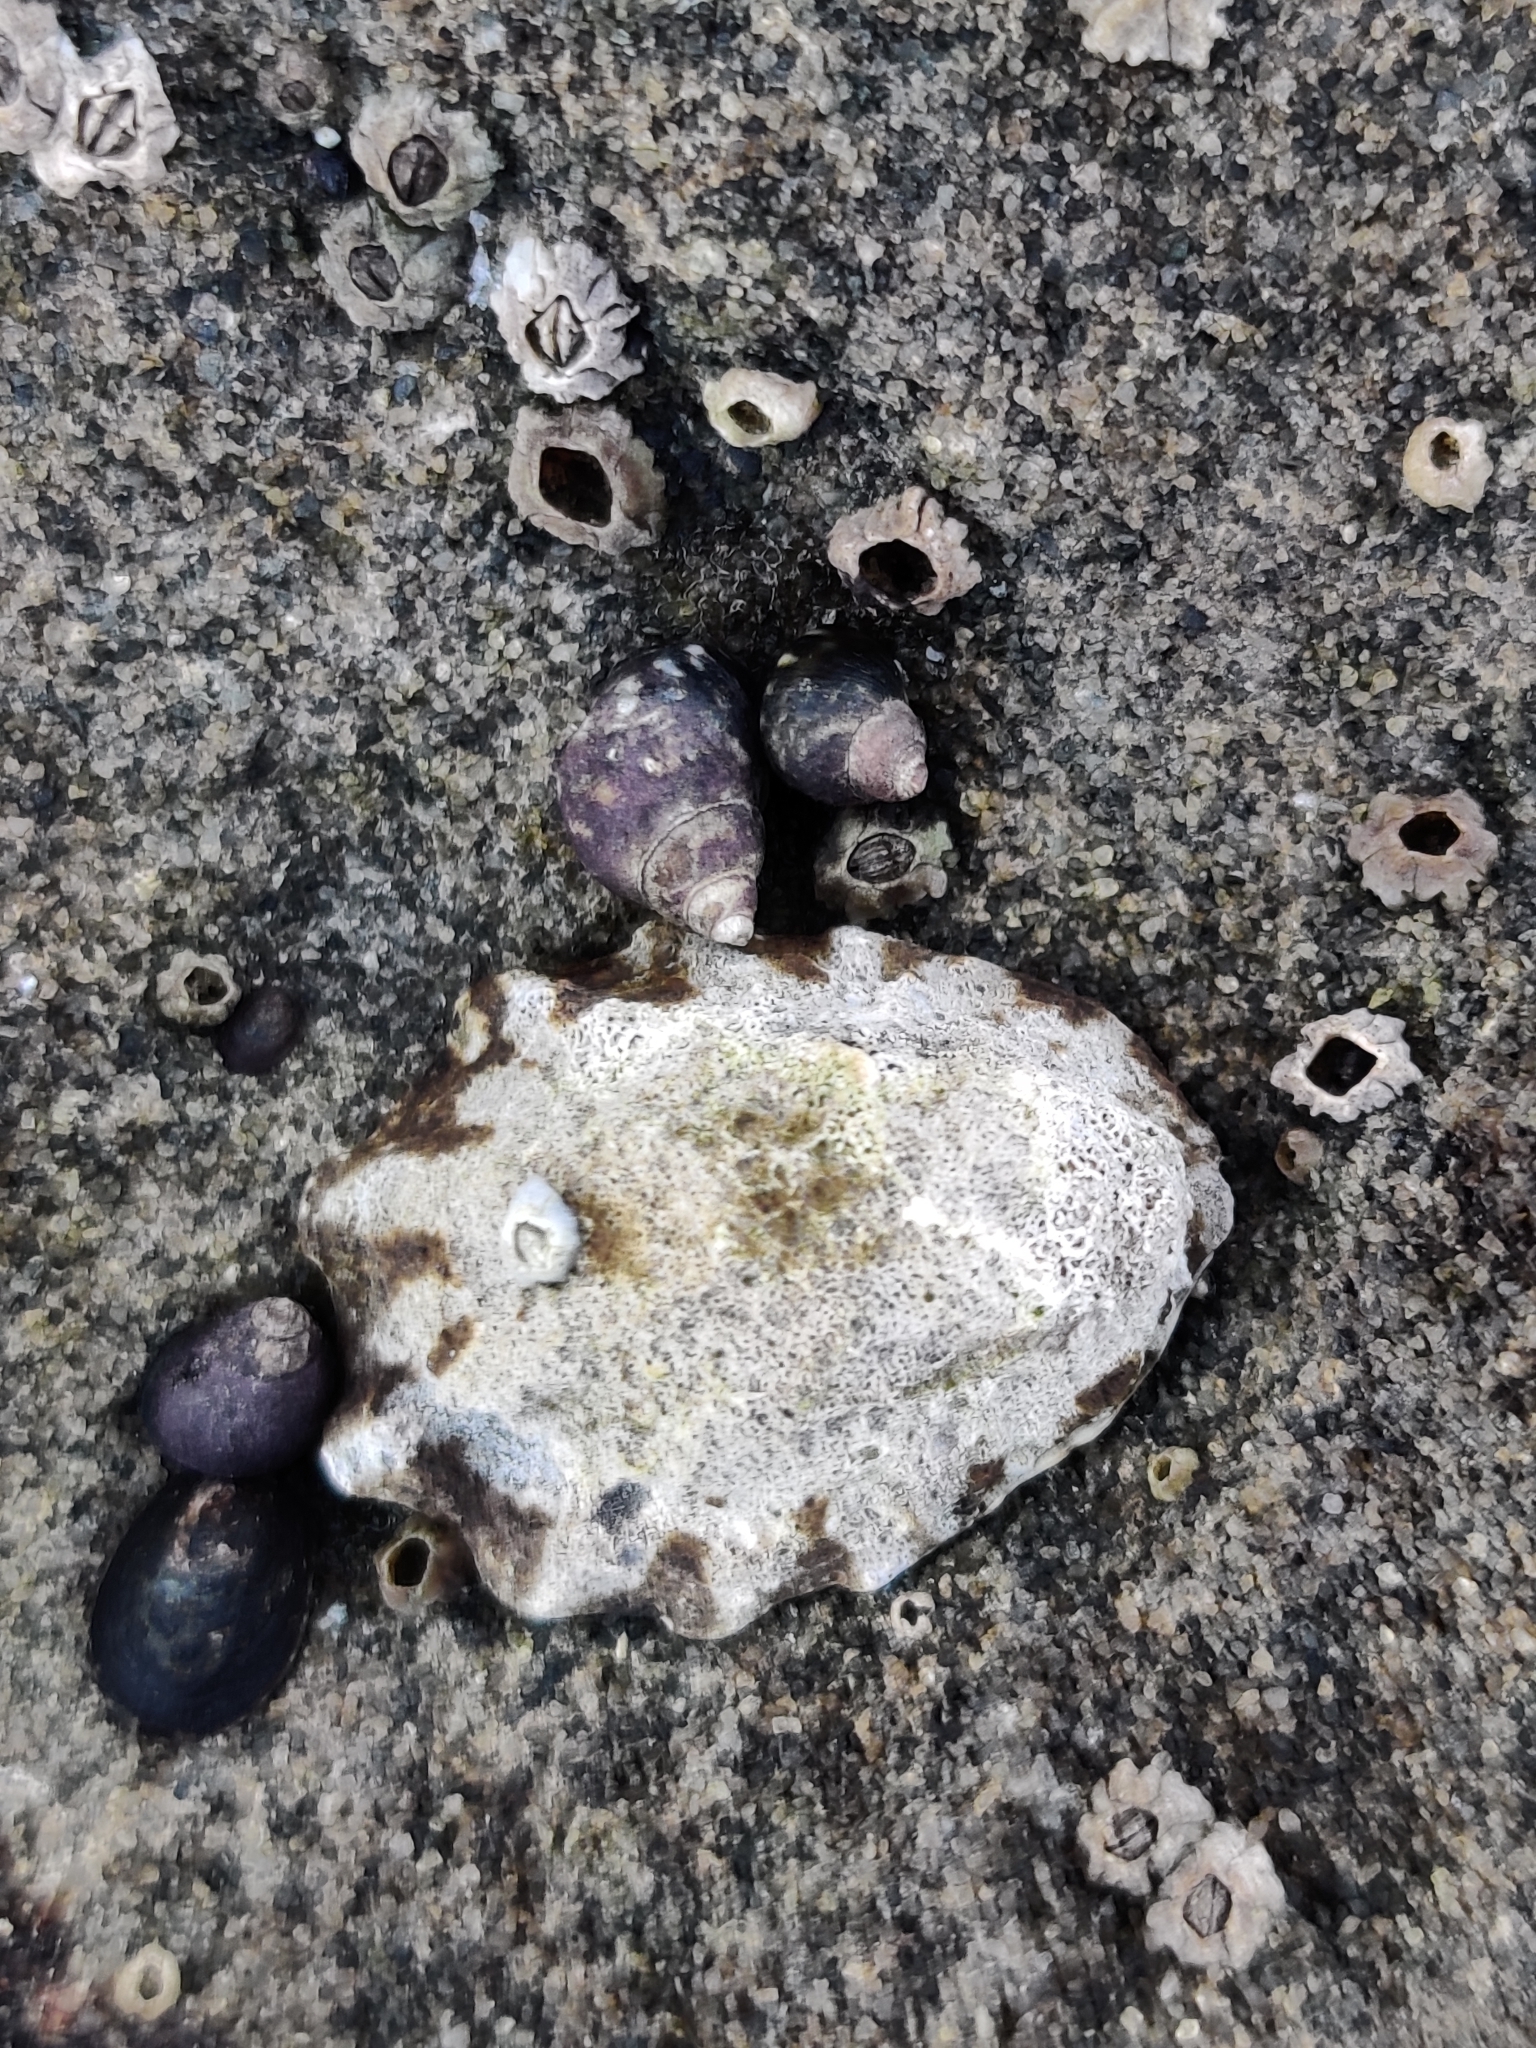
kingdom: Animalia
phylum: Mollusca
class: Gastropoda
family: Lottiidae
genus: Lottia
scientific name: Lottia digitalis
